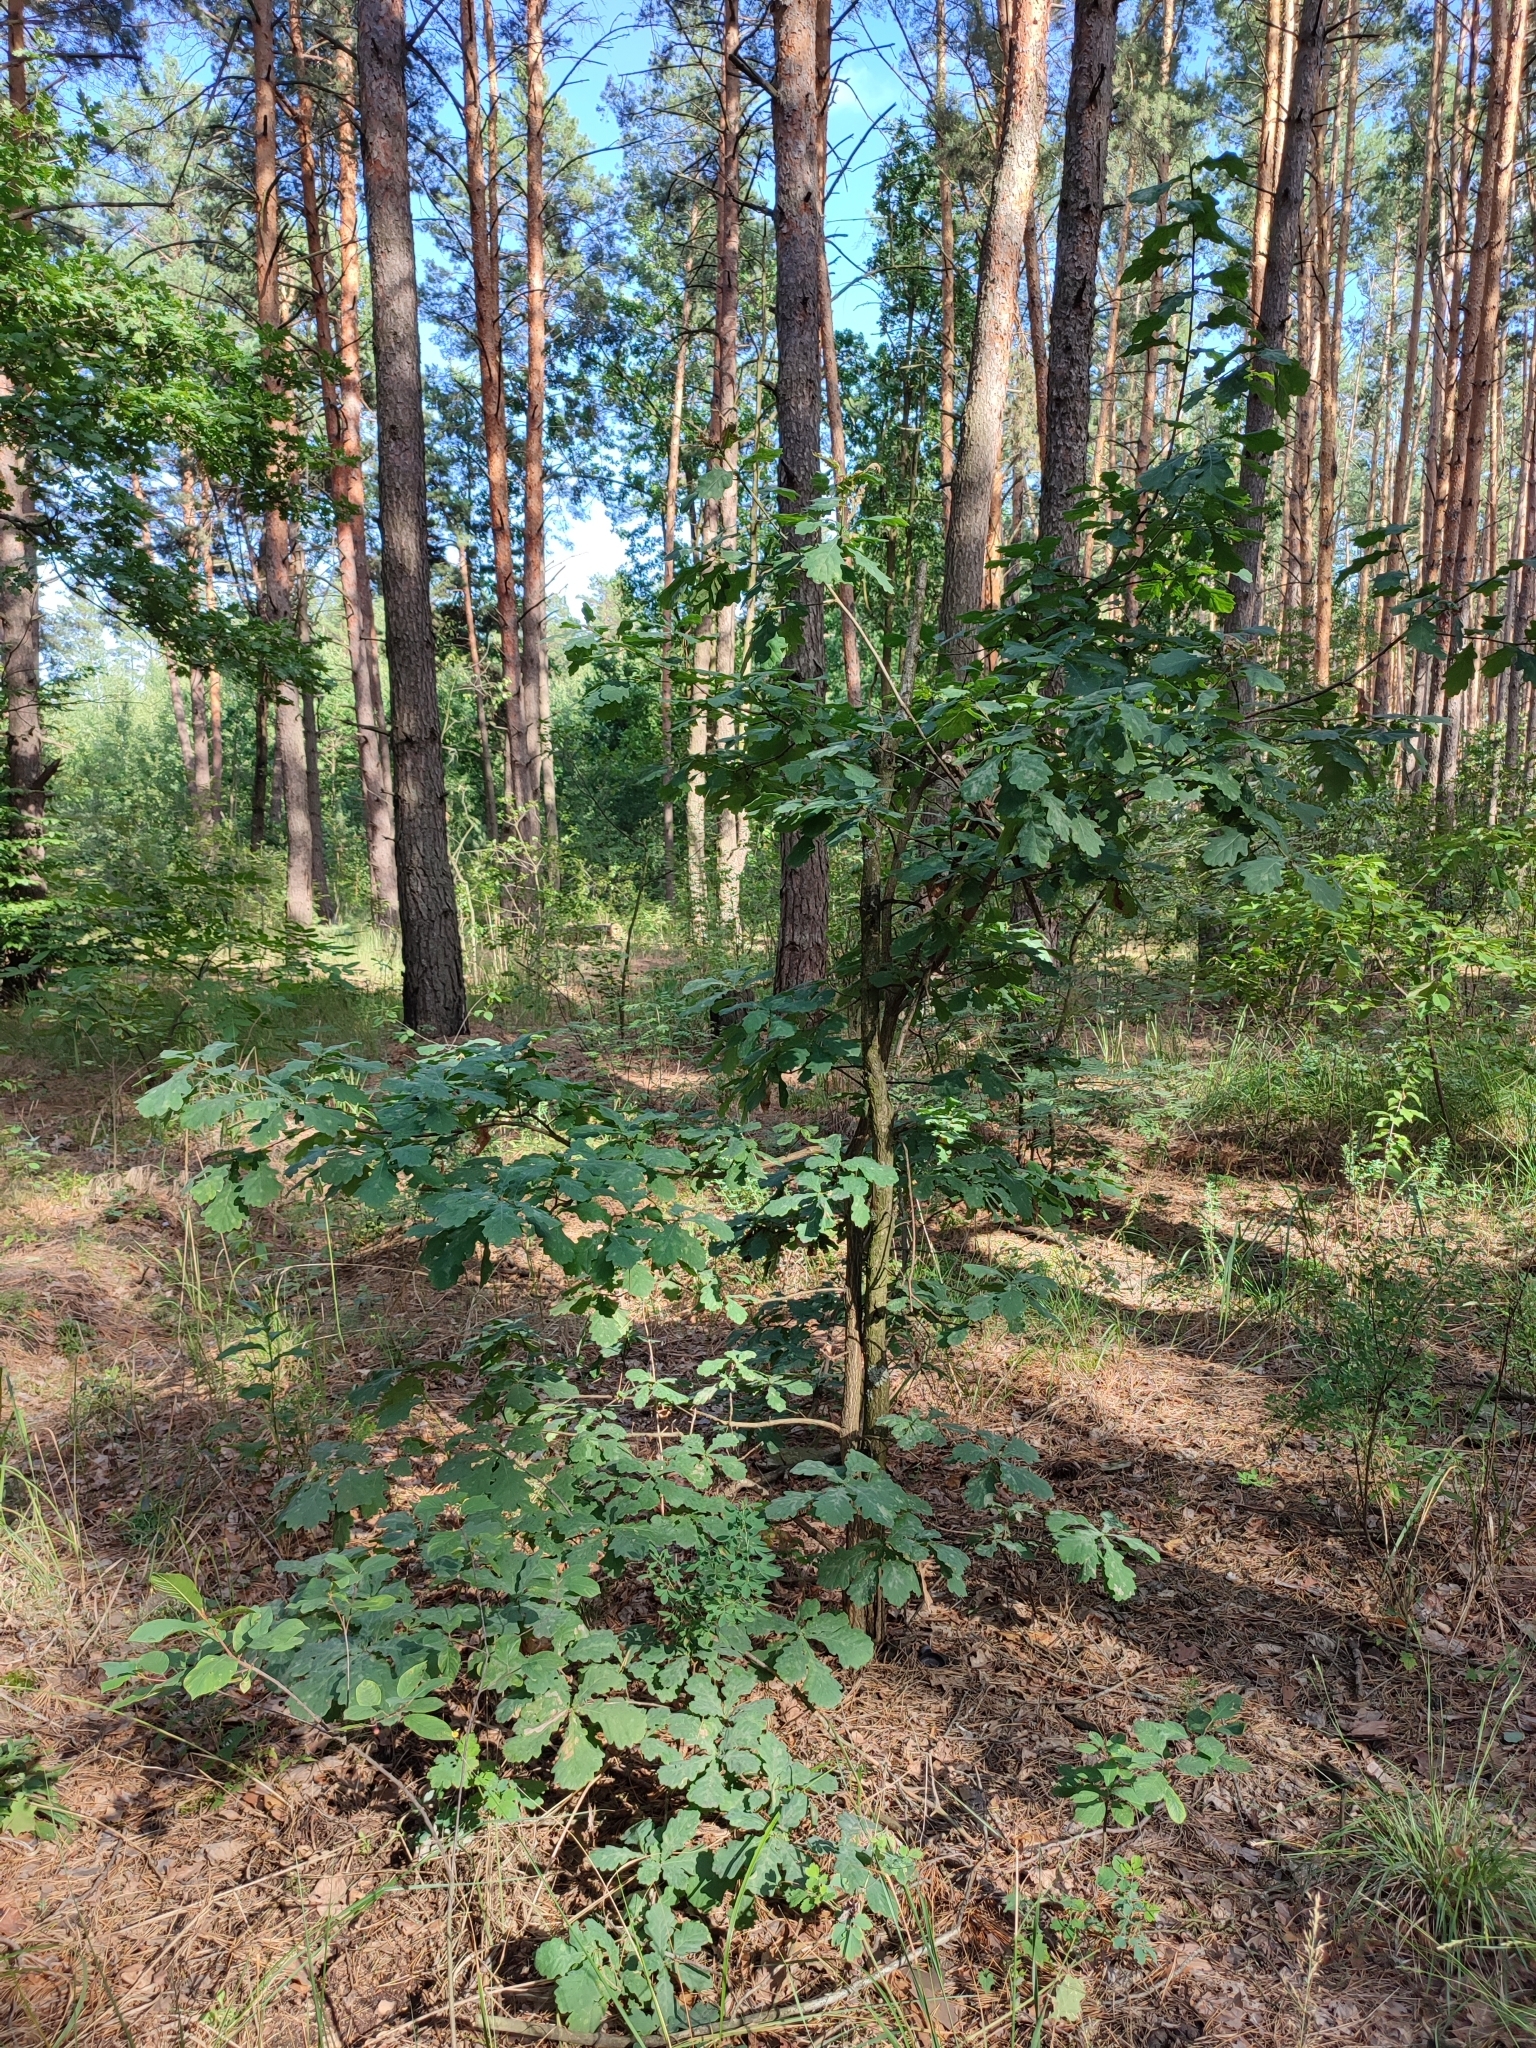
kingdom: Plantae
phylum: Tracheophyta
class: Magnoliopsida
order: Fagales
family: Fagaceae
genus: Quercus
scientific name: Quercus robur
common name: Pedunculate oak
